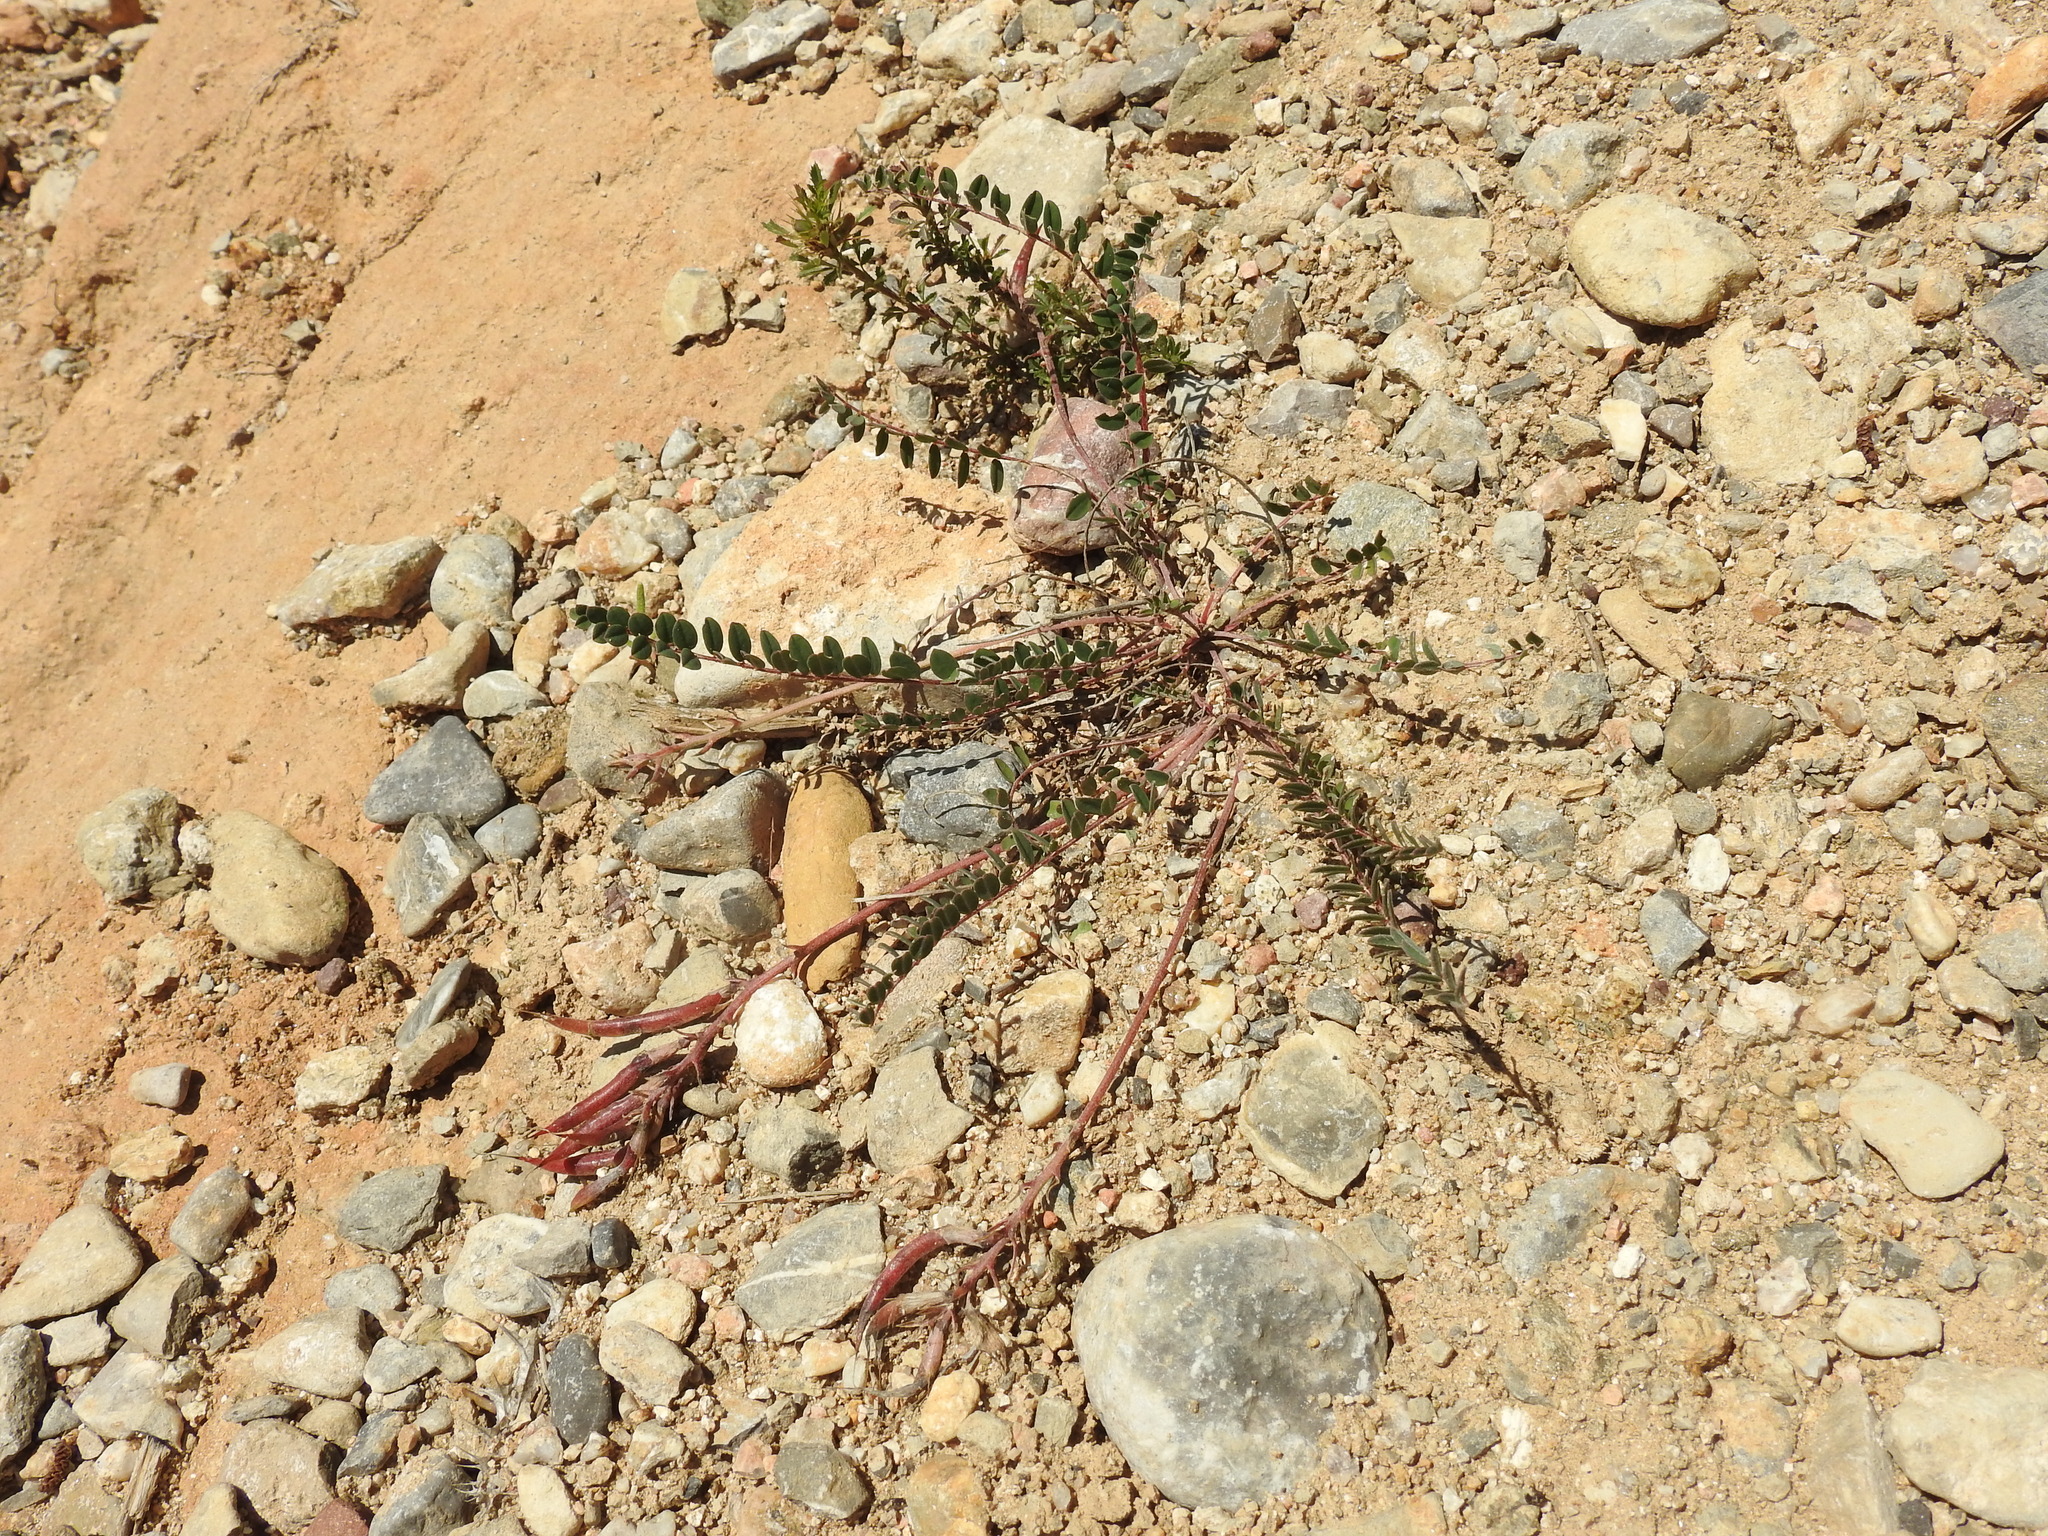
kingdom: Plantae
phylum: Tracheophyta
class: Magnoliopsida
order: Fabales
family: Fabaceae
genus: Astragalus
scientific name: Astragalus monspessulanus
